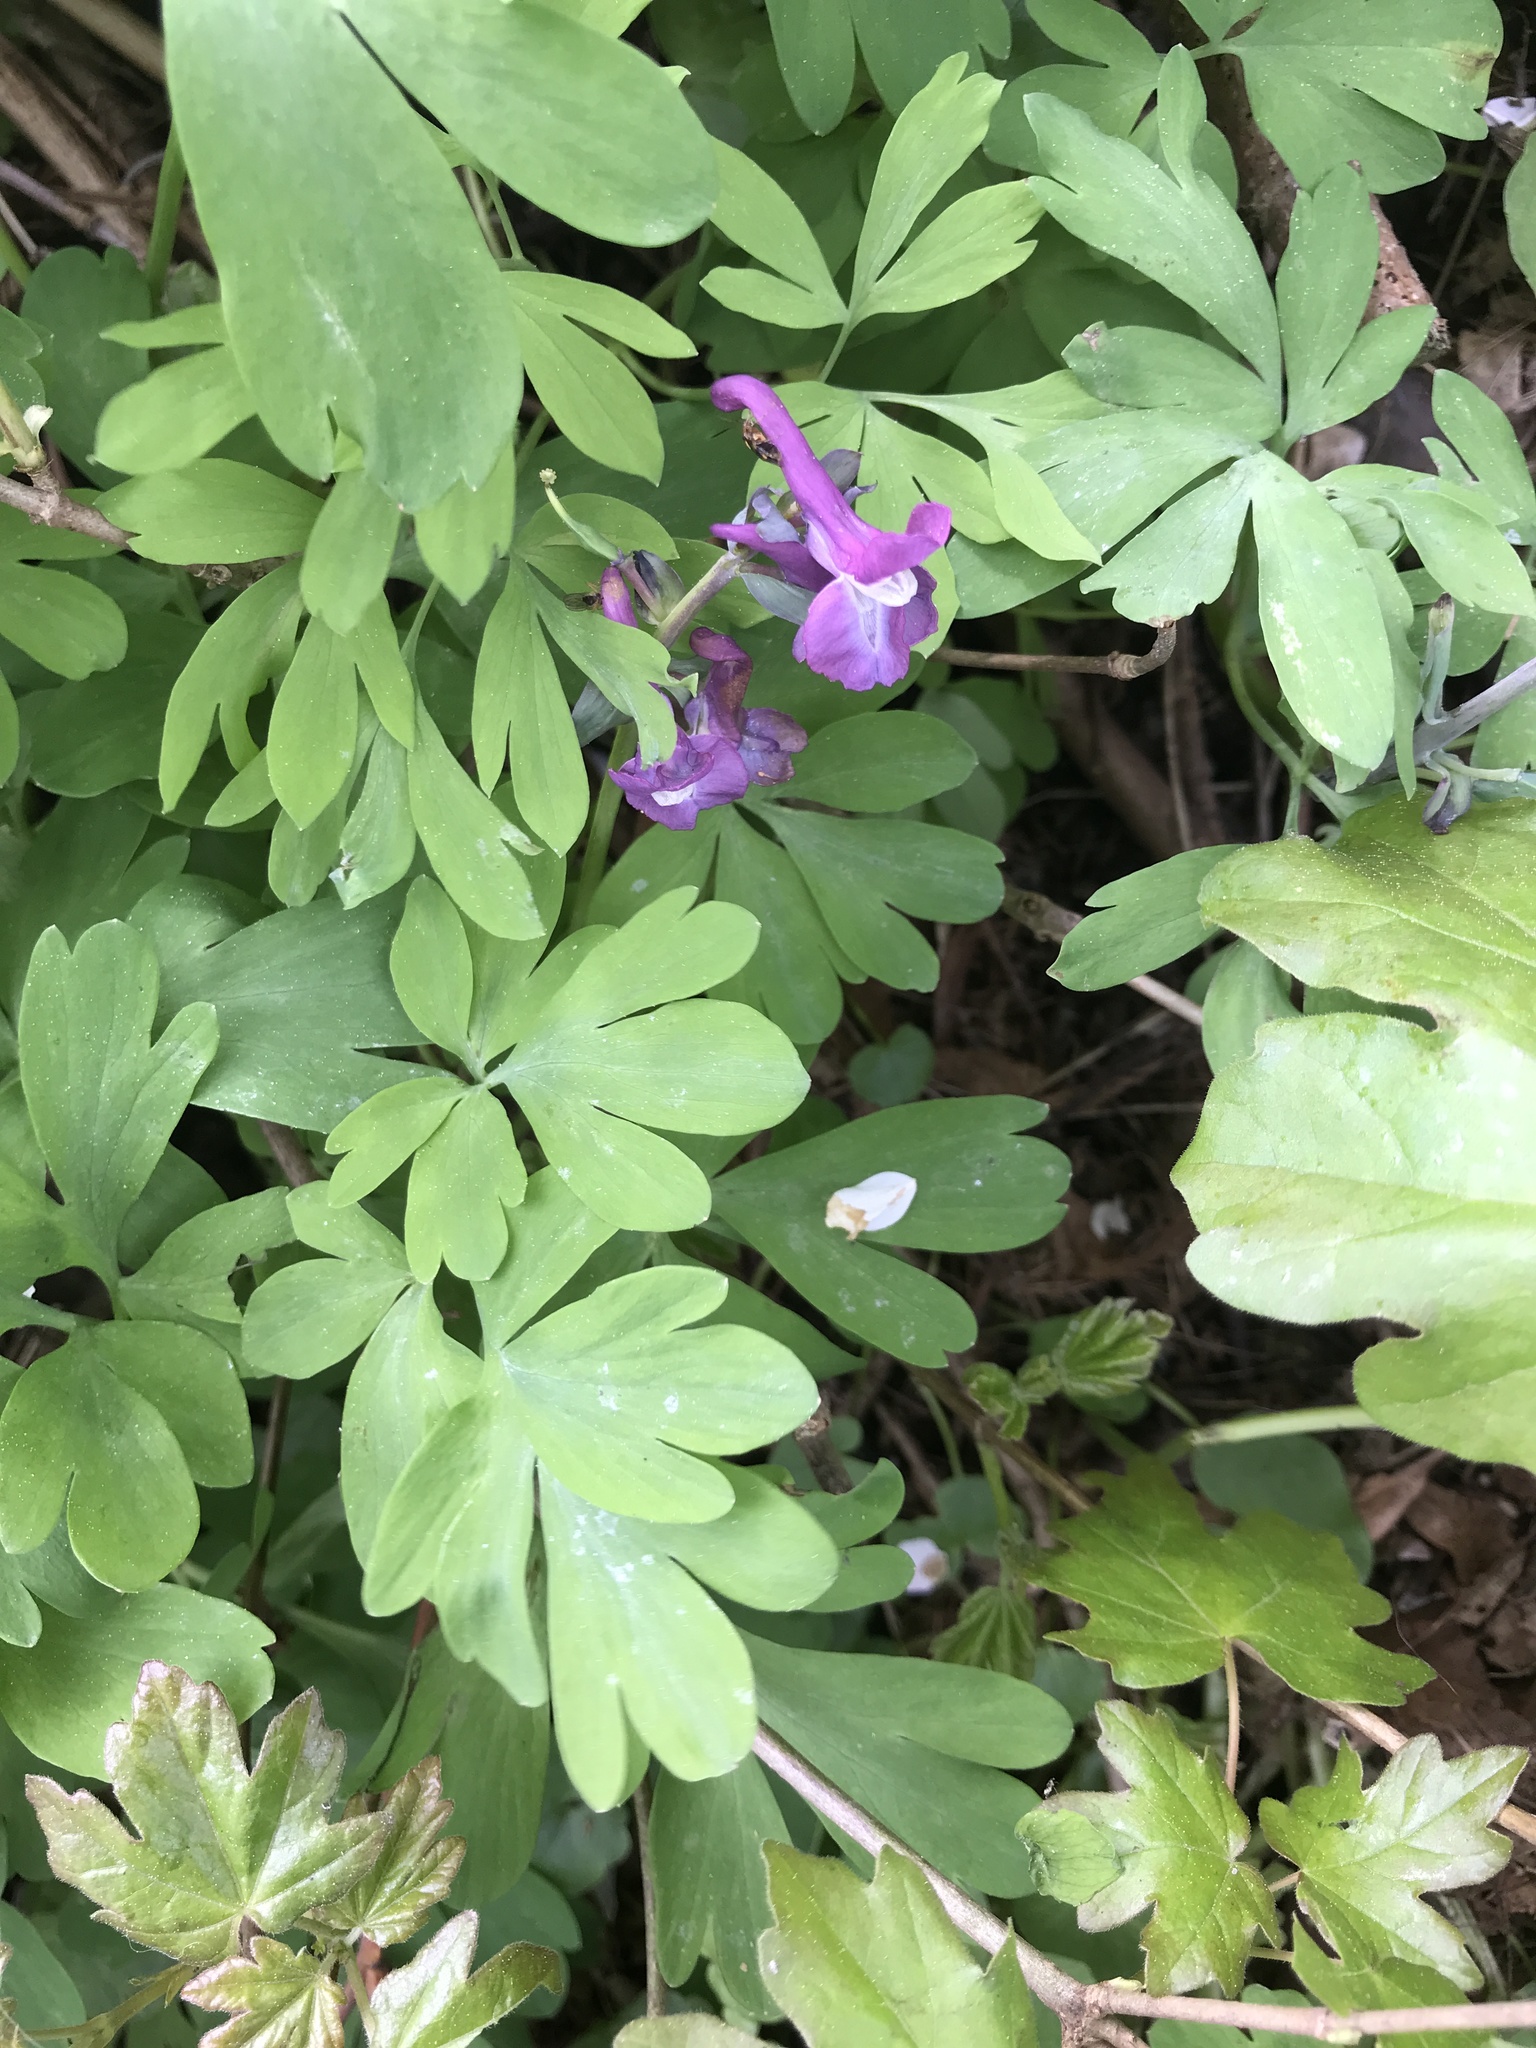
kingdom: Plantae
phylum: Tracheophyta
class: Magnoliopsida
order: Ranunculales
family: Papaveraceae
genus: Corydalis
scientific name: Corydalis cava
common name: Hollowroot
